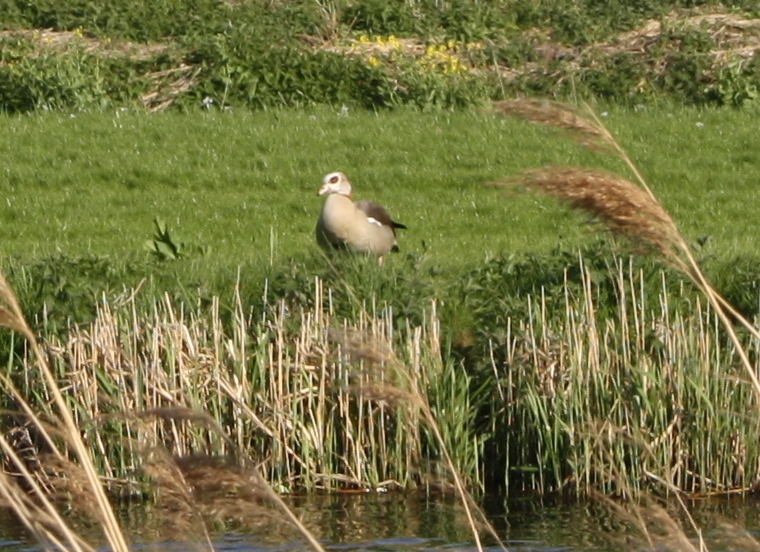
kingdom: Animalia
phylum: Chordata
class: Aves
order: Anseriformes
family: Anatidae
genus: Alopochen
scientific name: Alopochen aegyptiaca
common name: Egyptian goose
